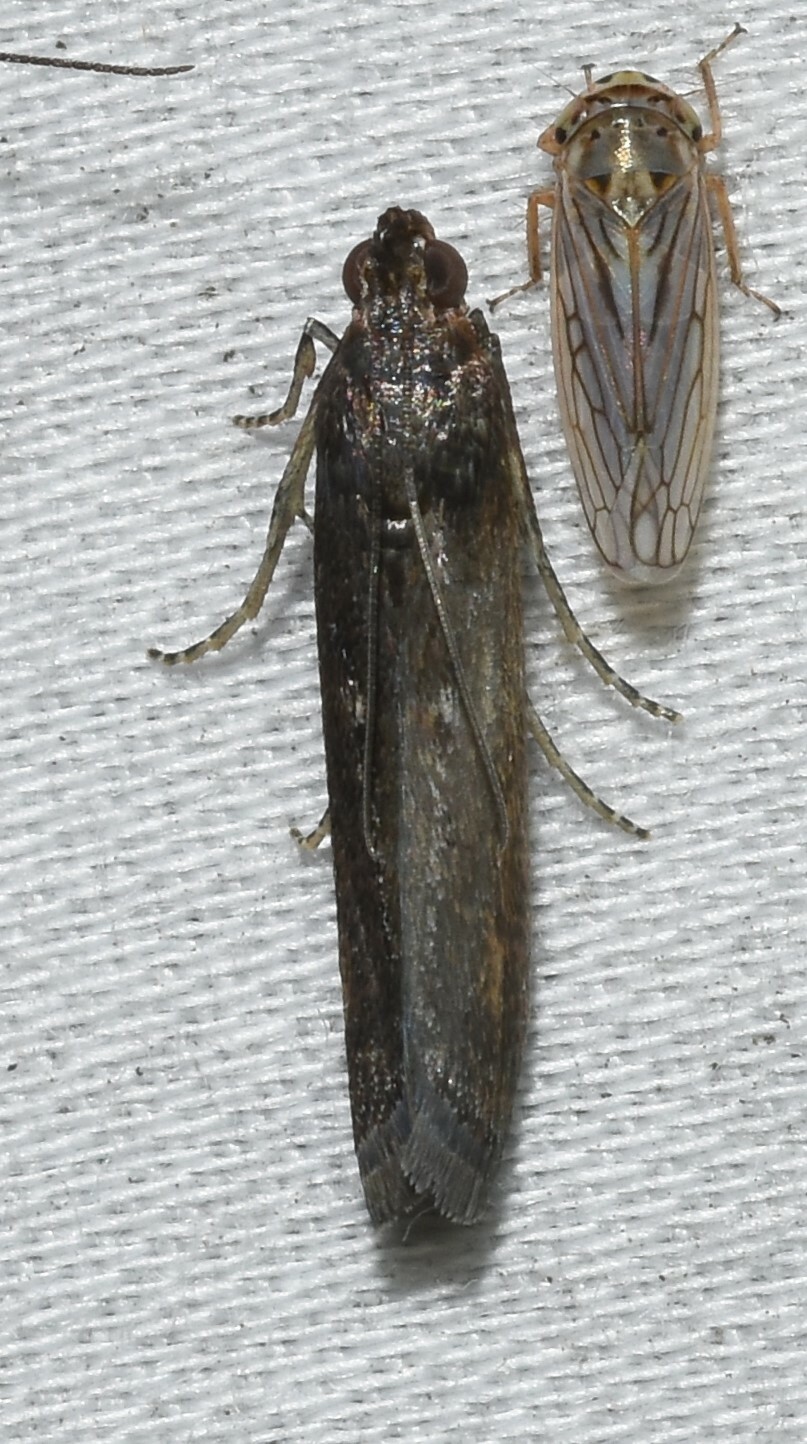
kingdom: Animalia
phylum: Arthropoda
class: Insecta
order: Lepidoptera
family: Pyralidae
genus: Elasmopalpus
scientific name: Elasmopalpus lignosella
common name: Lesser cornstalk borer
